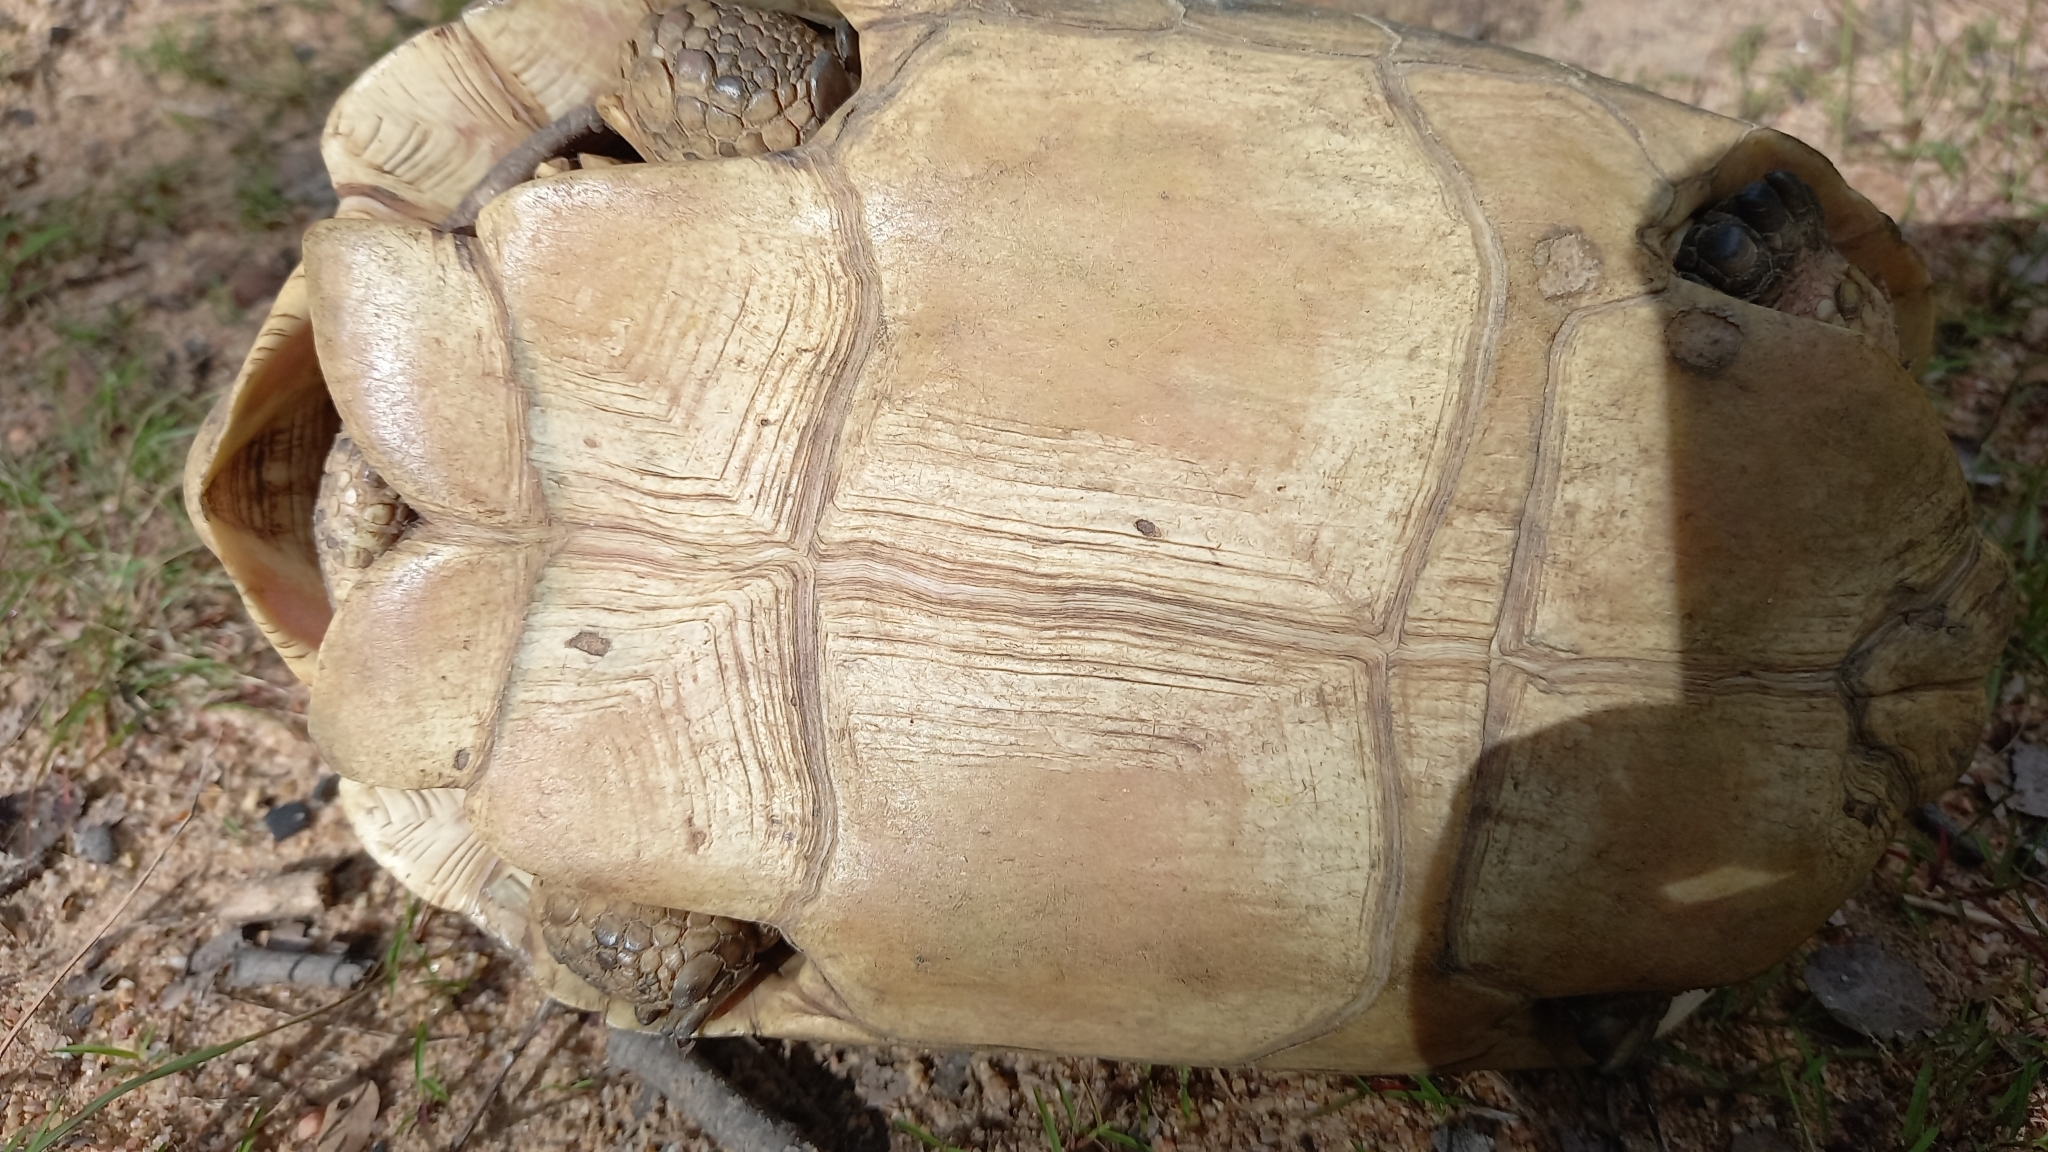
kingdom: Animalia
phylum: Chordata
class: Testudines
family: Testudinidae
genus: Stigmochelys
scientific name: Stigmochelys pardalis
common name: Leopard tortoise
